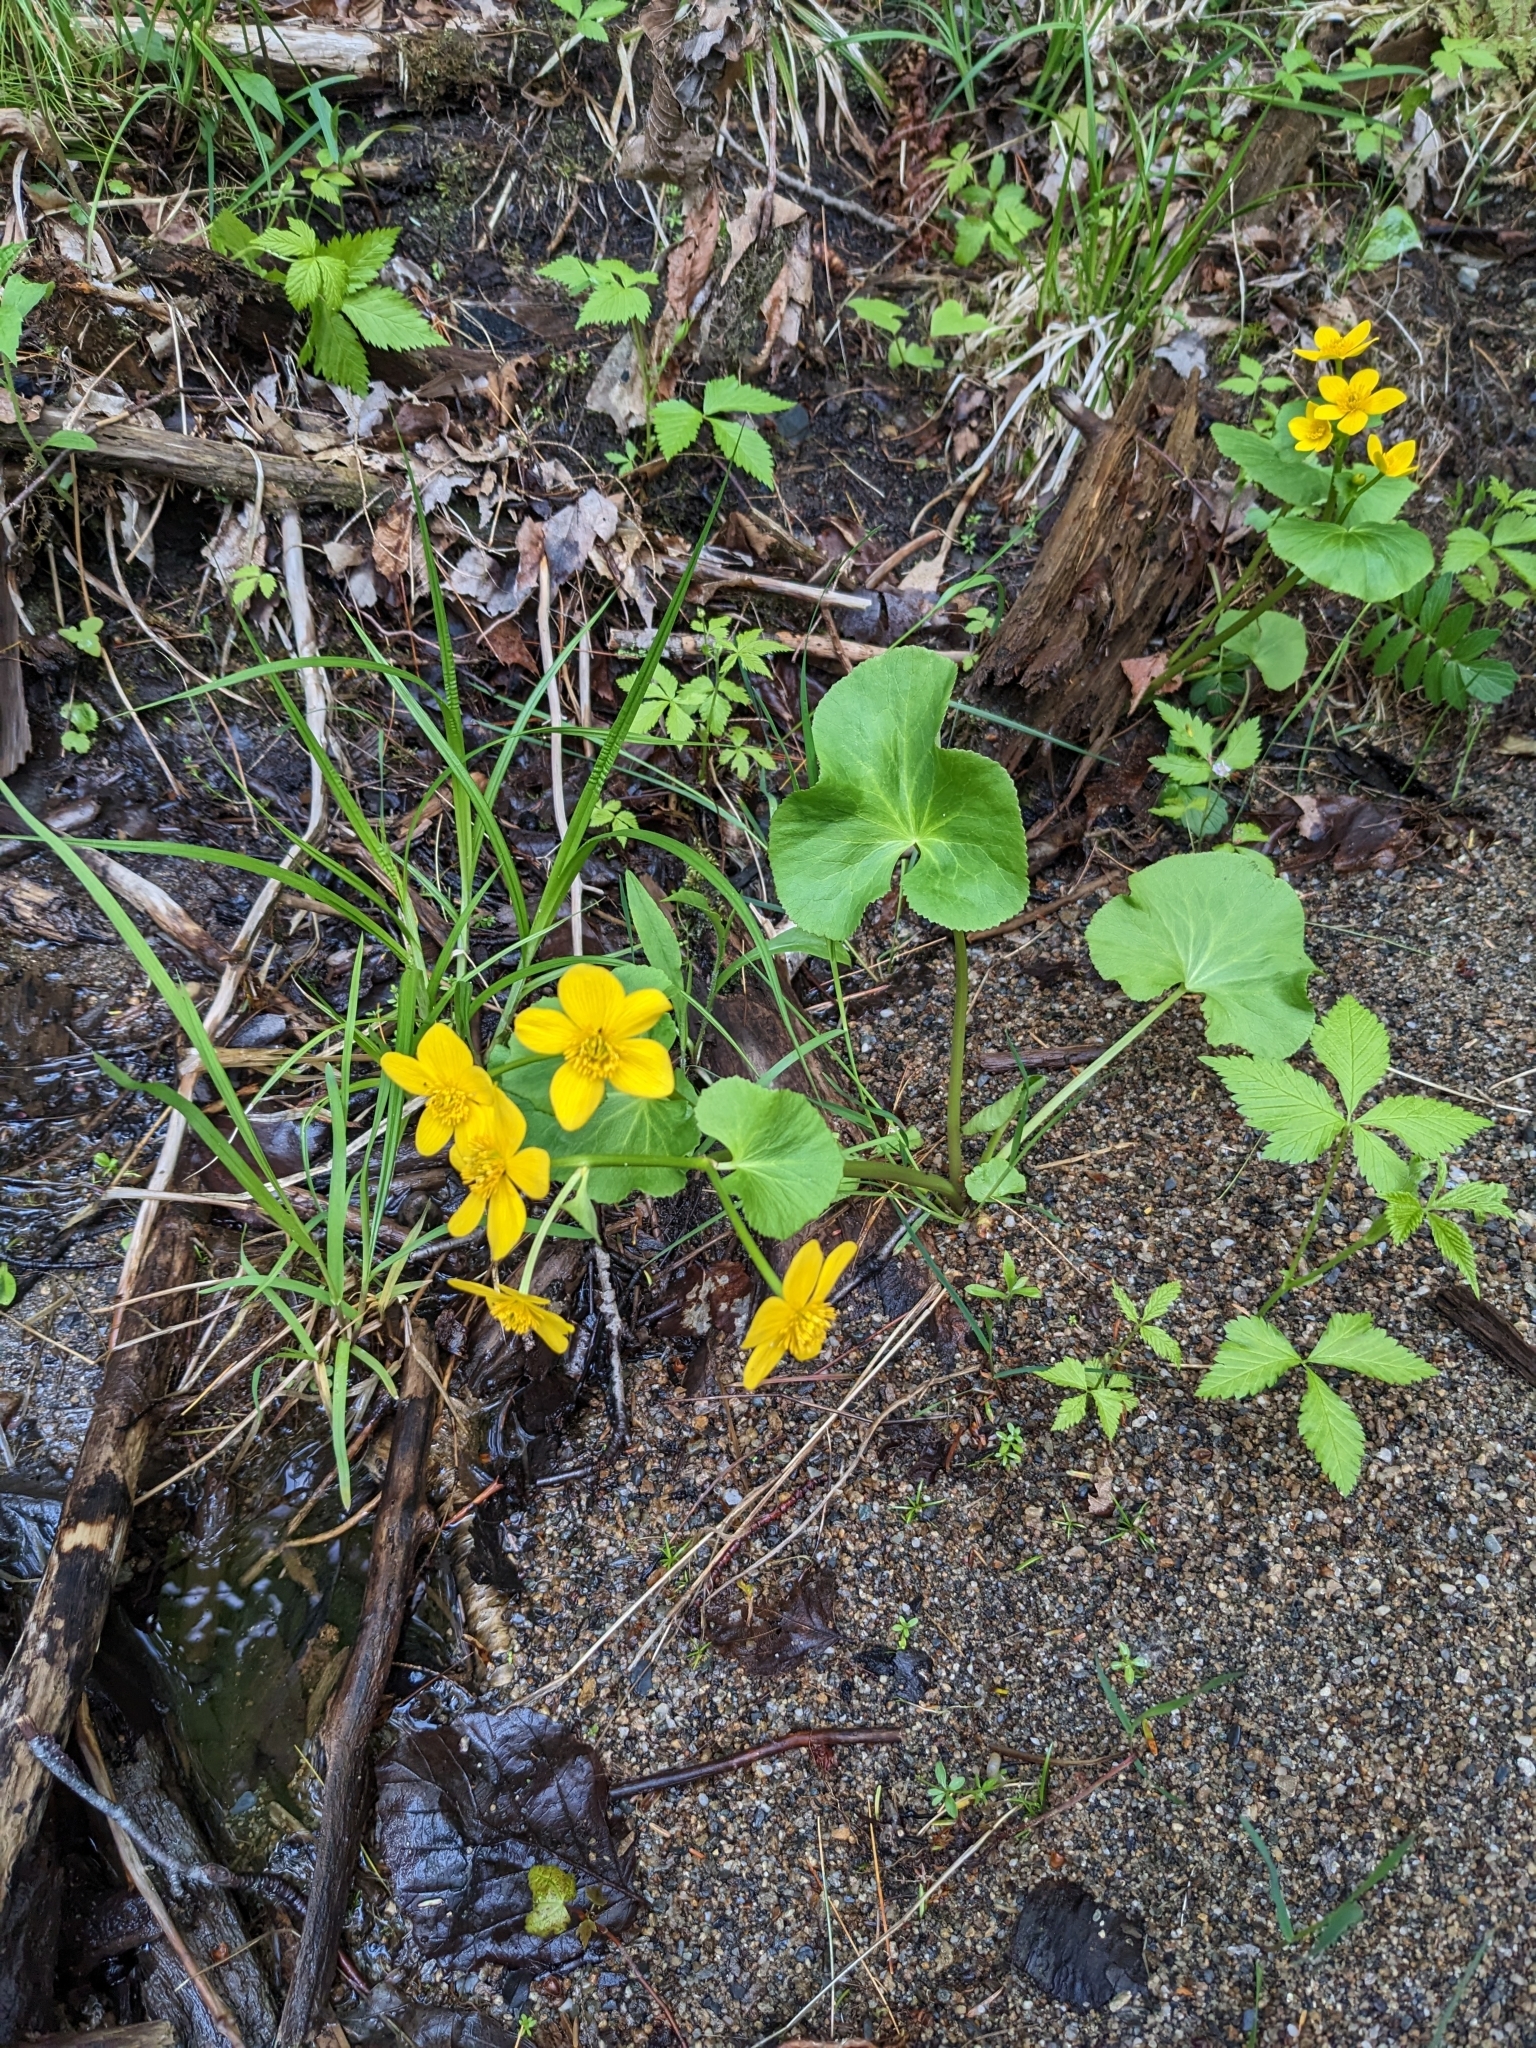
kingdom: Plantae
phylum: Tracheophyta
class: Magnoliopsida
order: Ranunculales
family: Ranunculaceae
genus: Caltha
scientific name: Caltha palustris
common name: Marsh marigold
